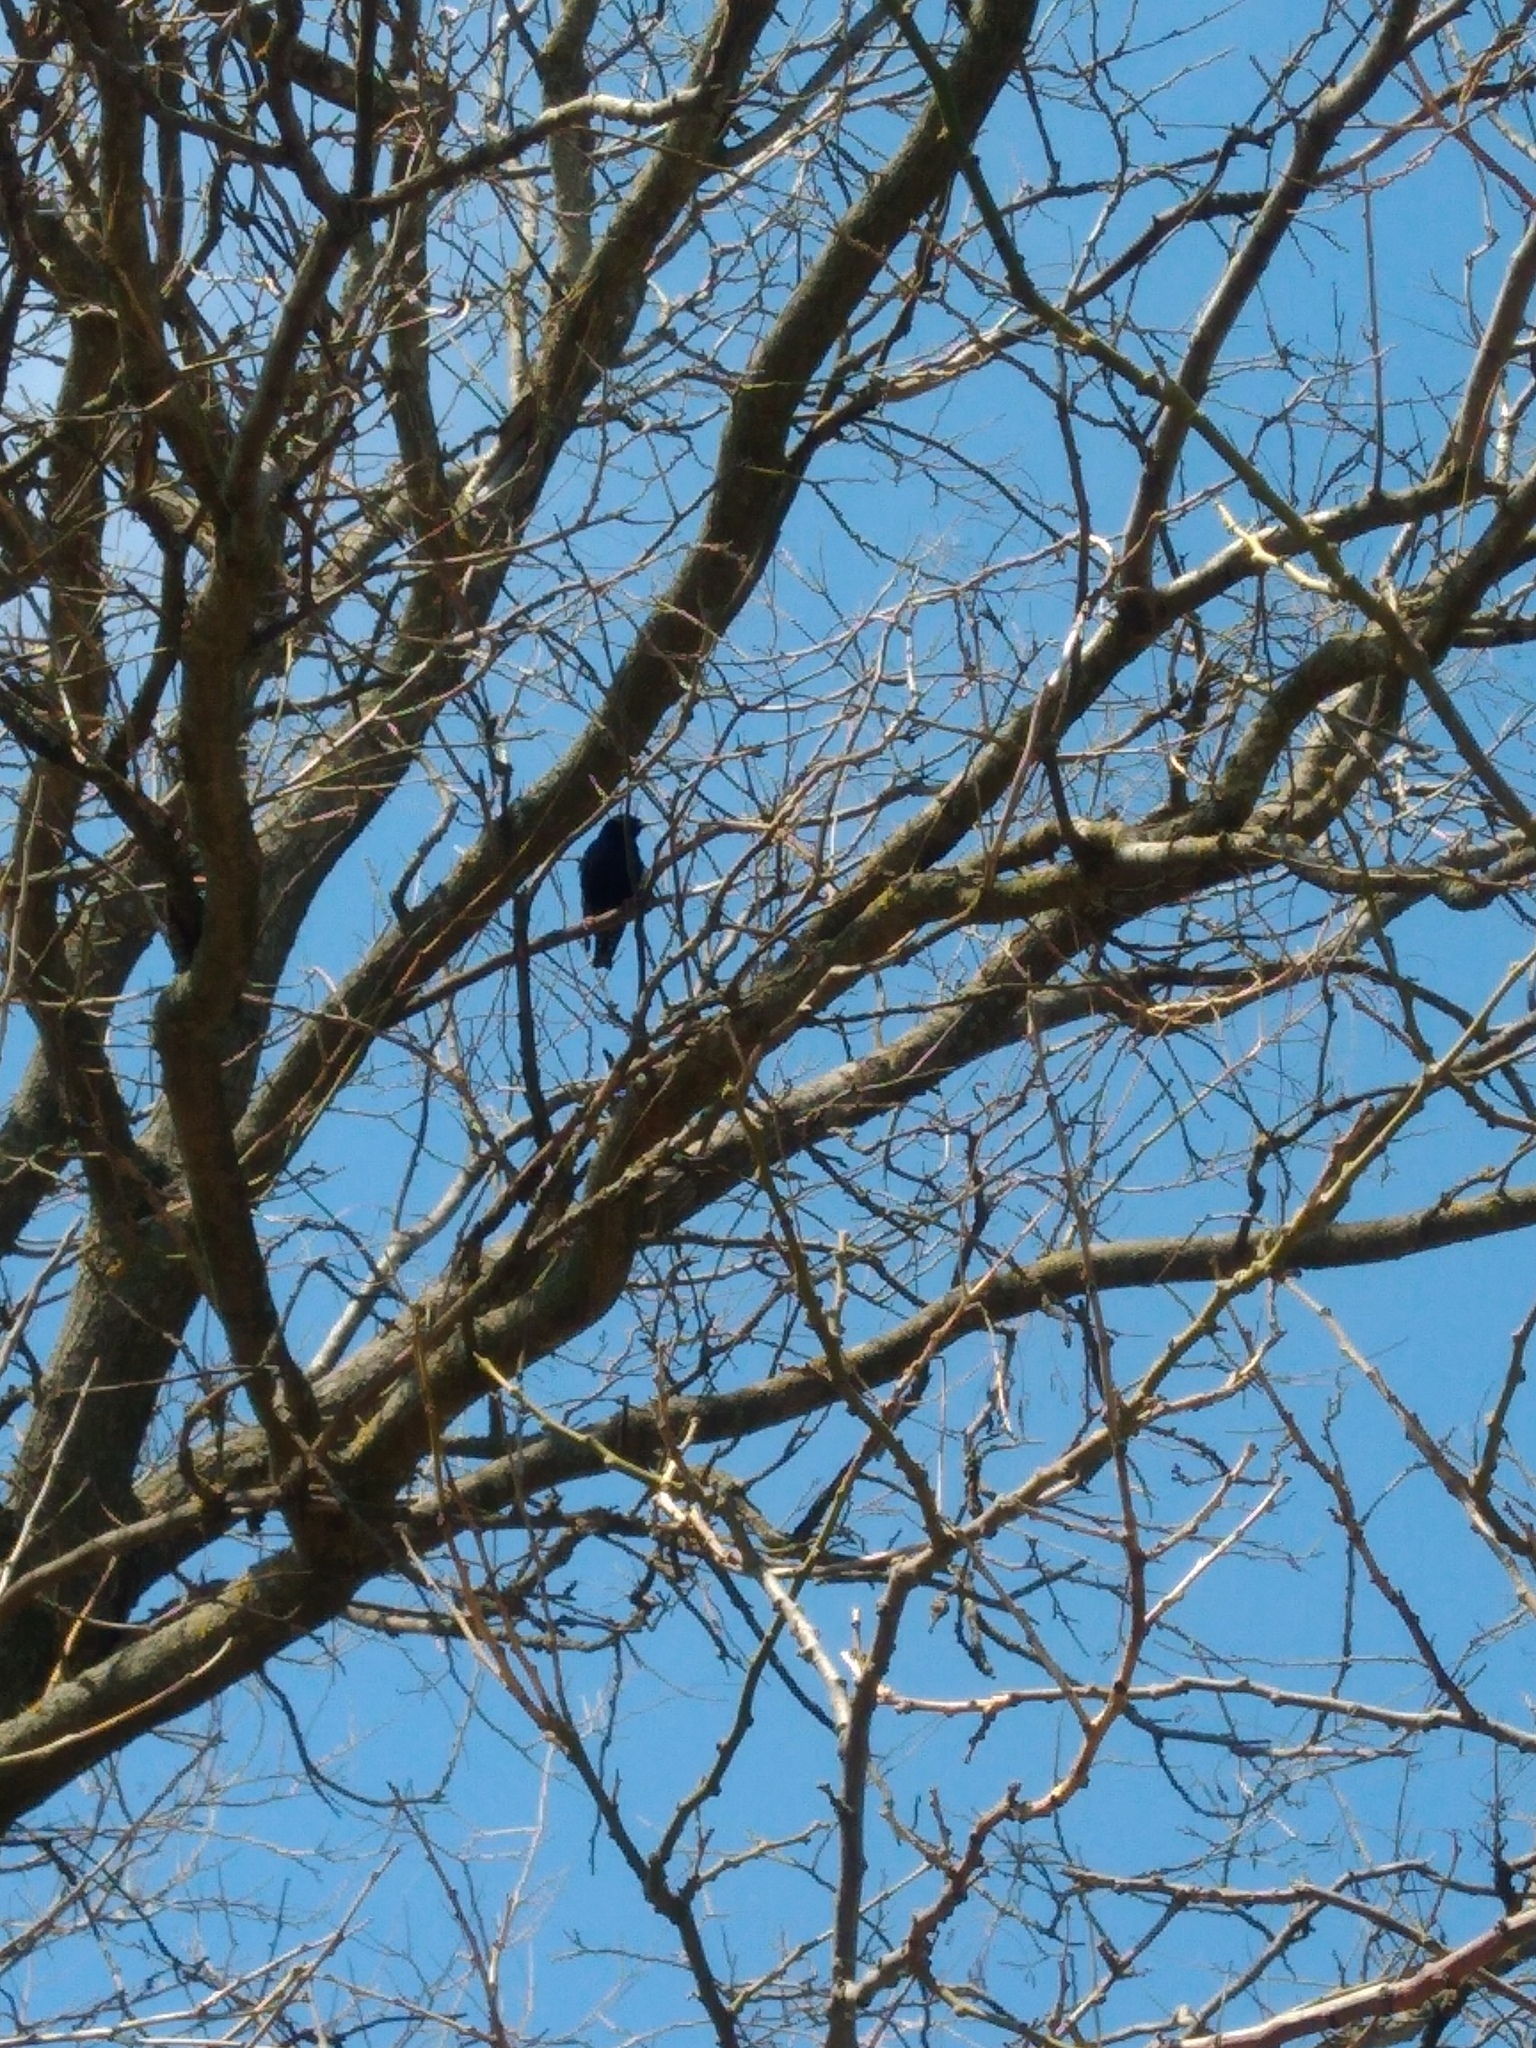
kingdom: Animalia
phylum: Chordata
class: Aves
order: Passeriformes
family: Sturnidae
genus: Sturnus
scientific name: Sturnus vulgaris
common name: Common starling
